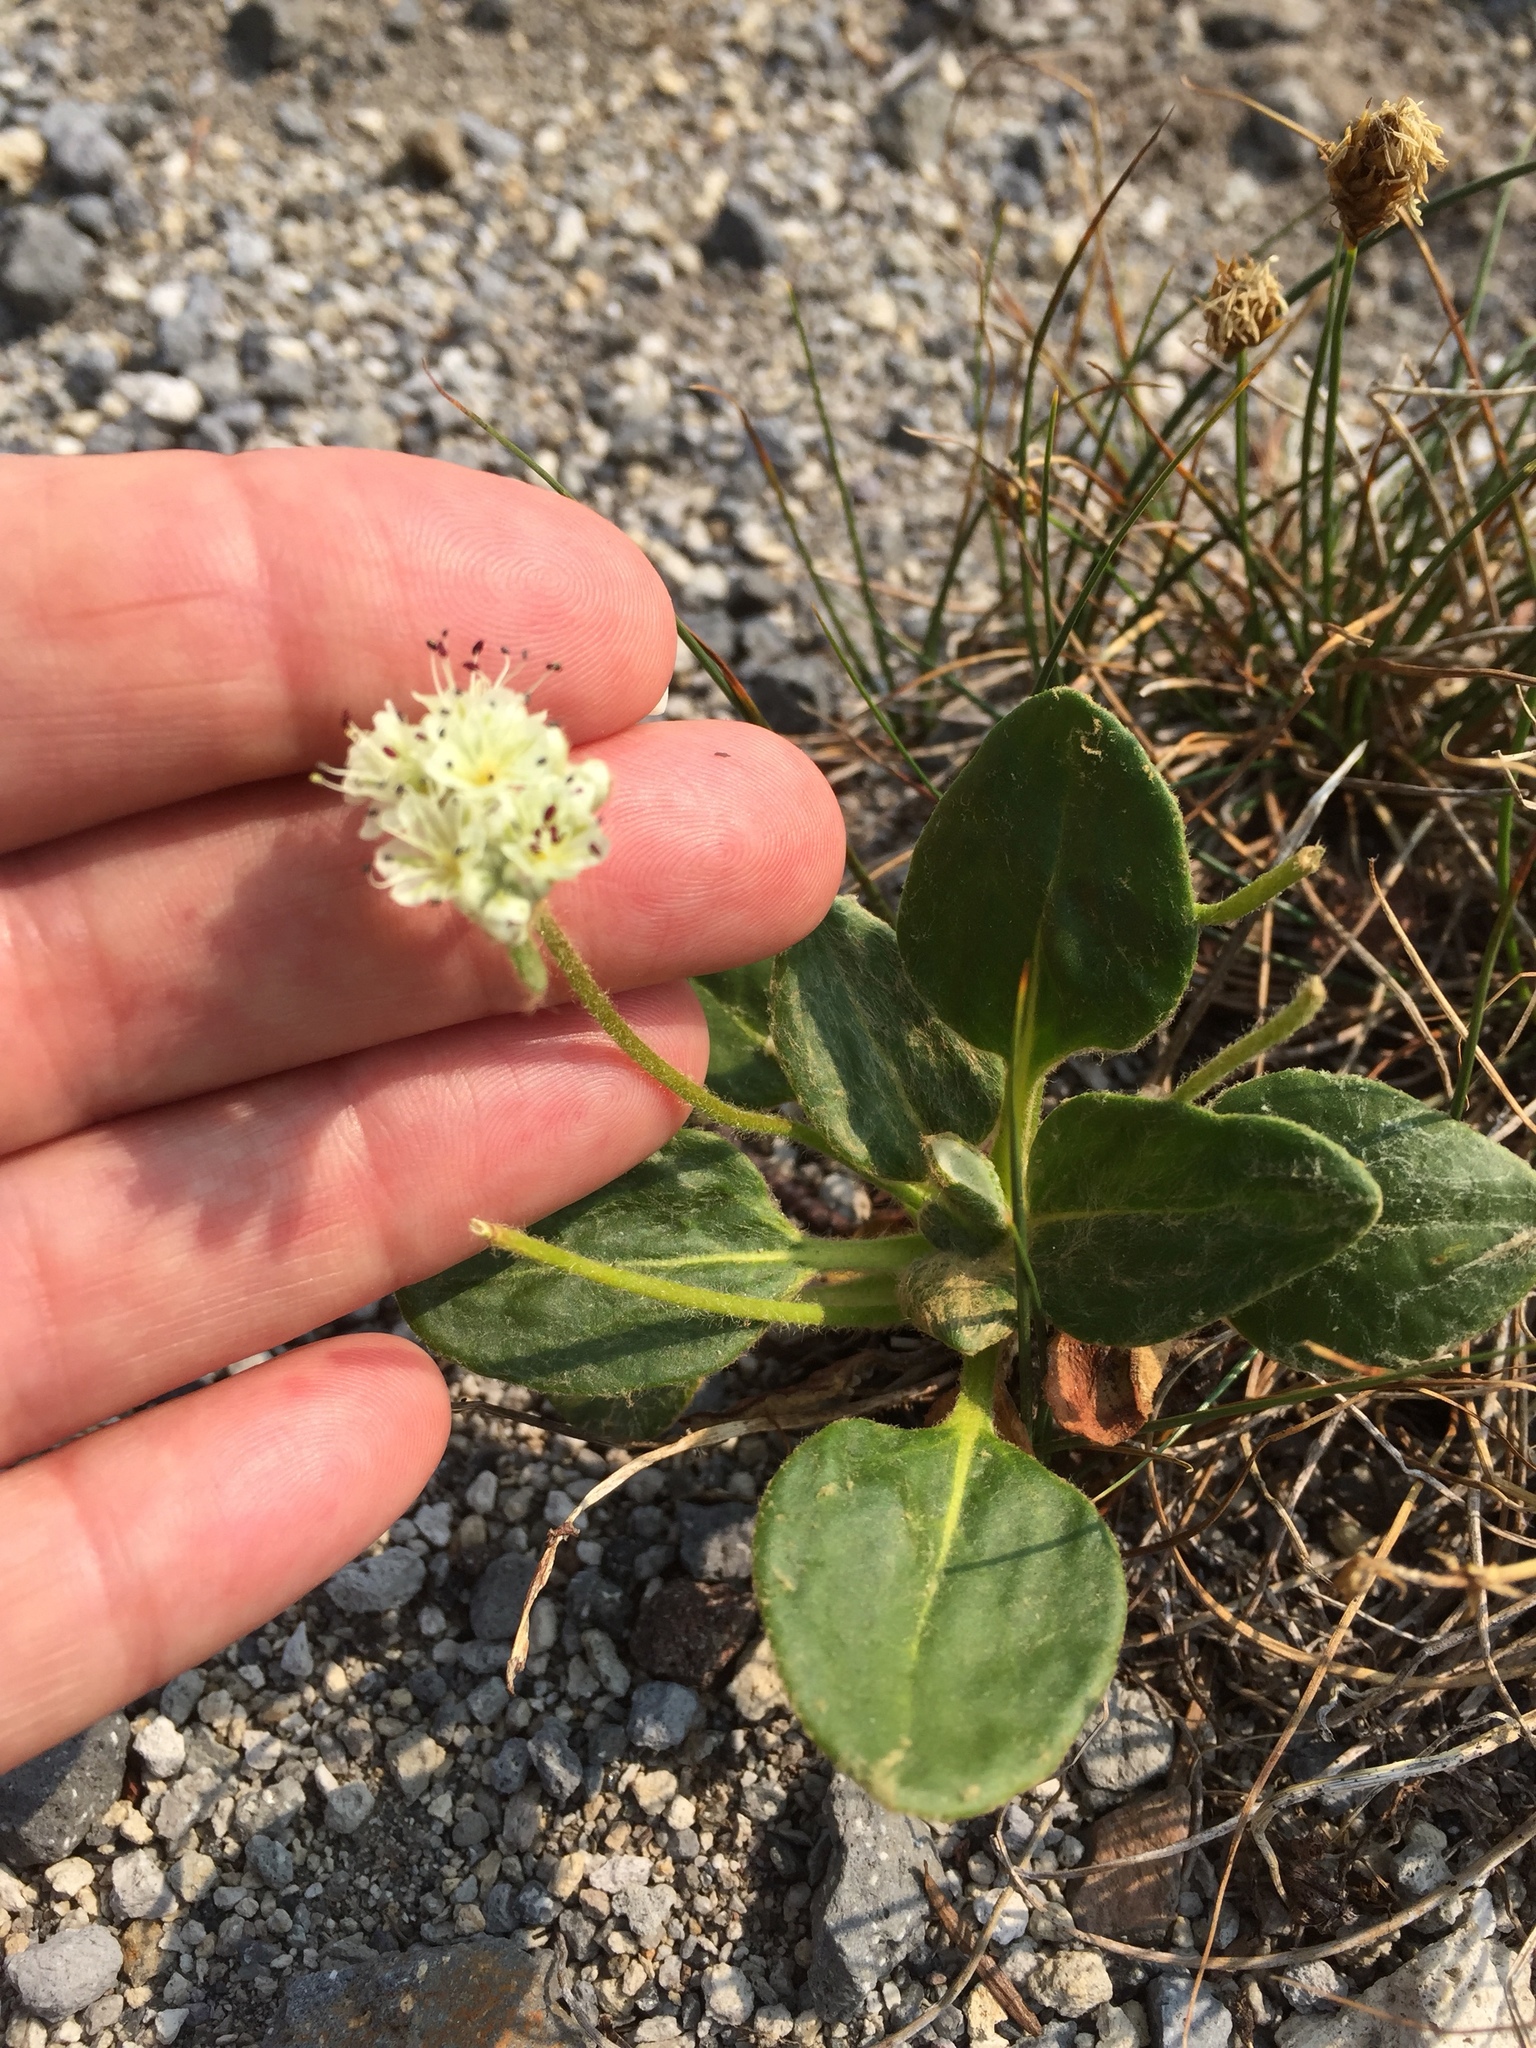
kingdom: Plantae
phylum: Tracheophyta
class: Magnoliopsida
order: Caryophyllales
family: Polygonaceae
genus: Eriogonum
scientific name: Eriogonum pyrolifolium
